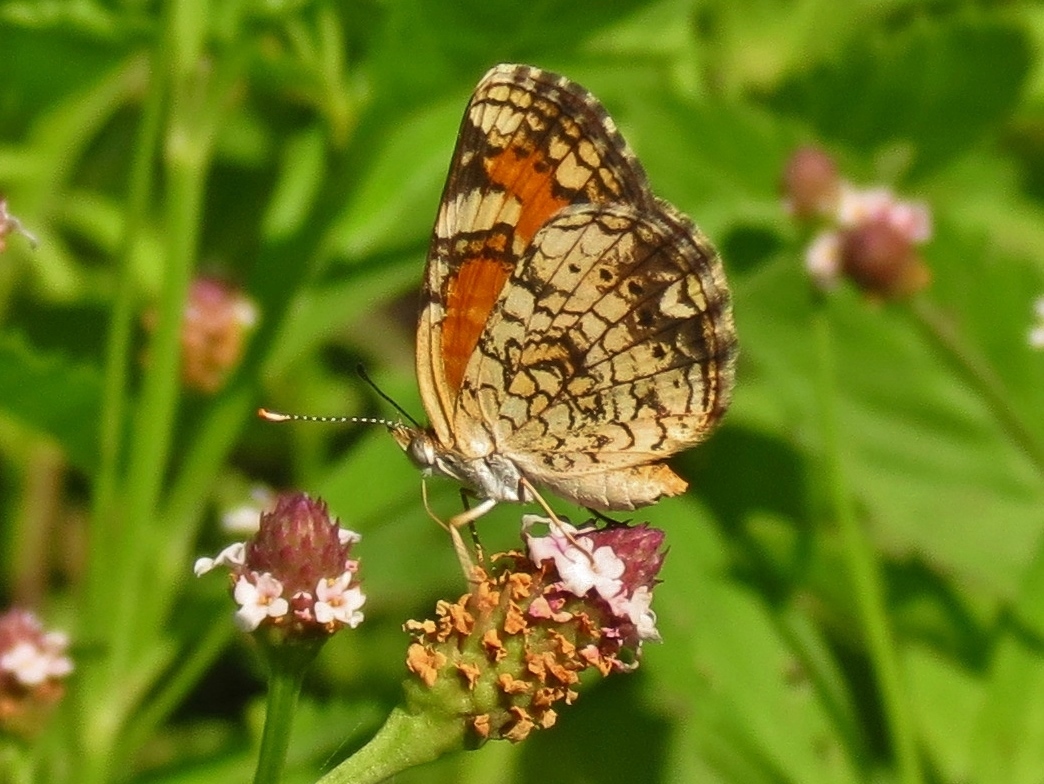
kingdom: Animalia
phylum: Arthropoda
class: Insecta
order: Lepidoptera
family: Nymphalidae
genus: Phyciodes
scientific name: Phyciodes phaon
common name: Phaon crescent
